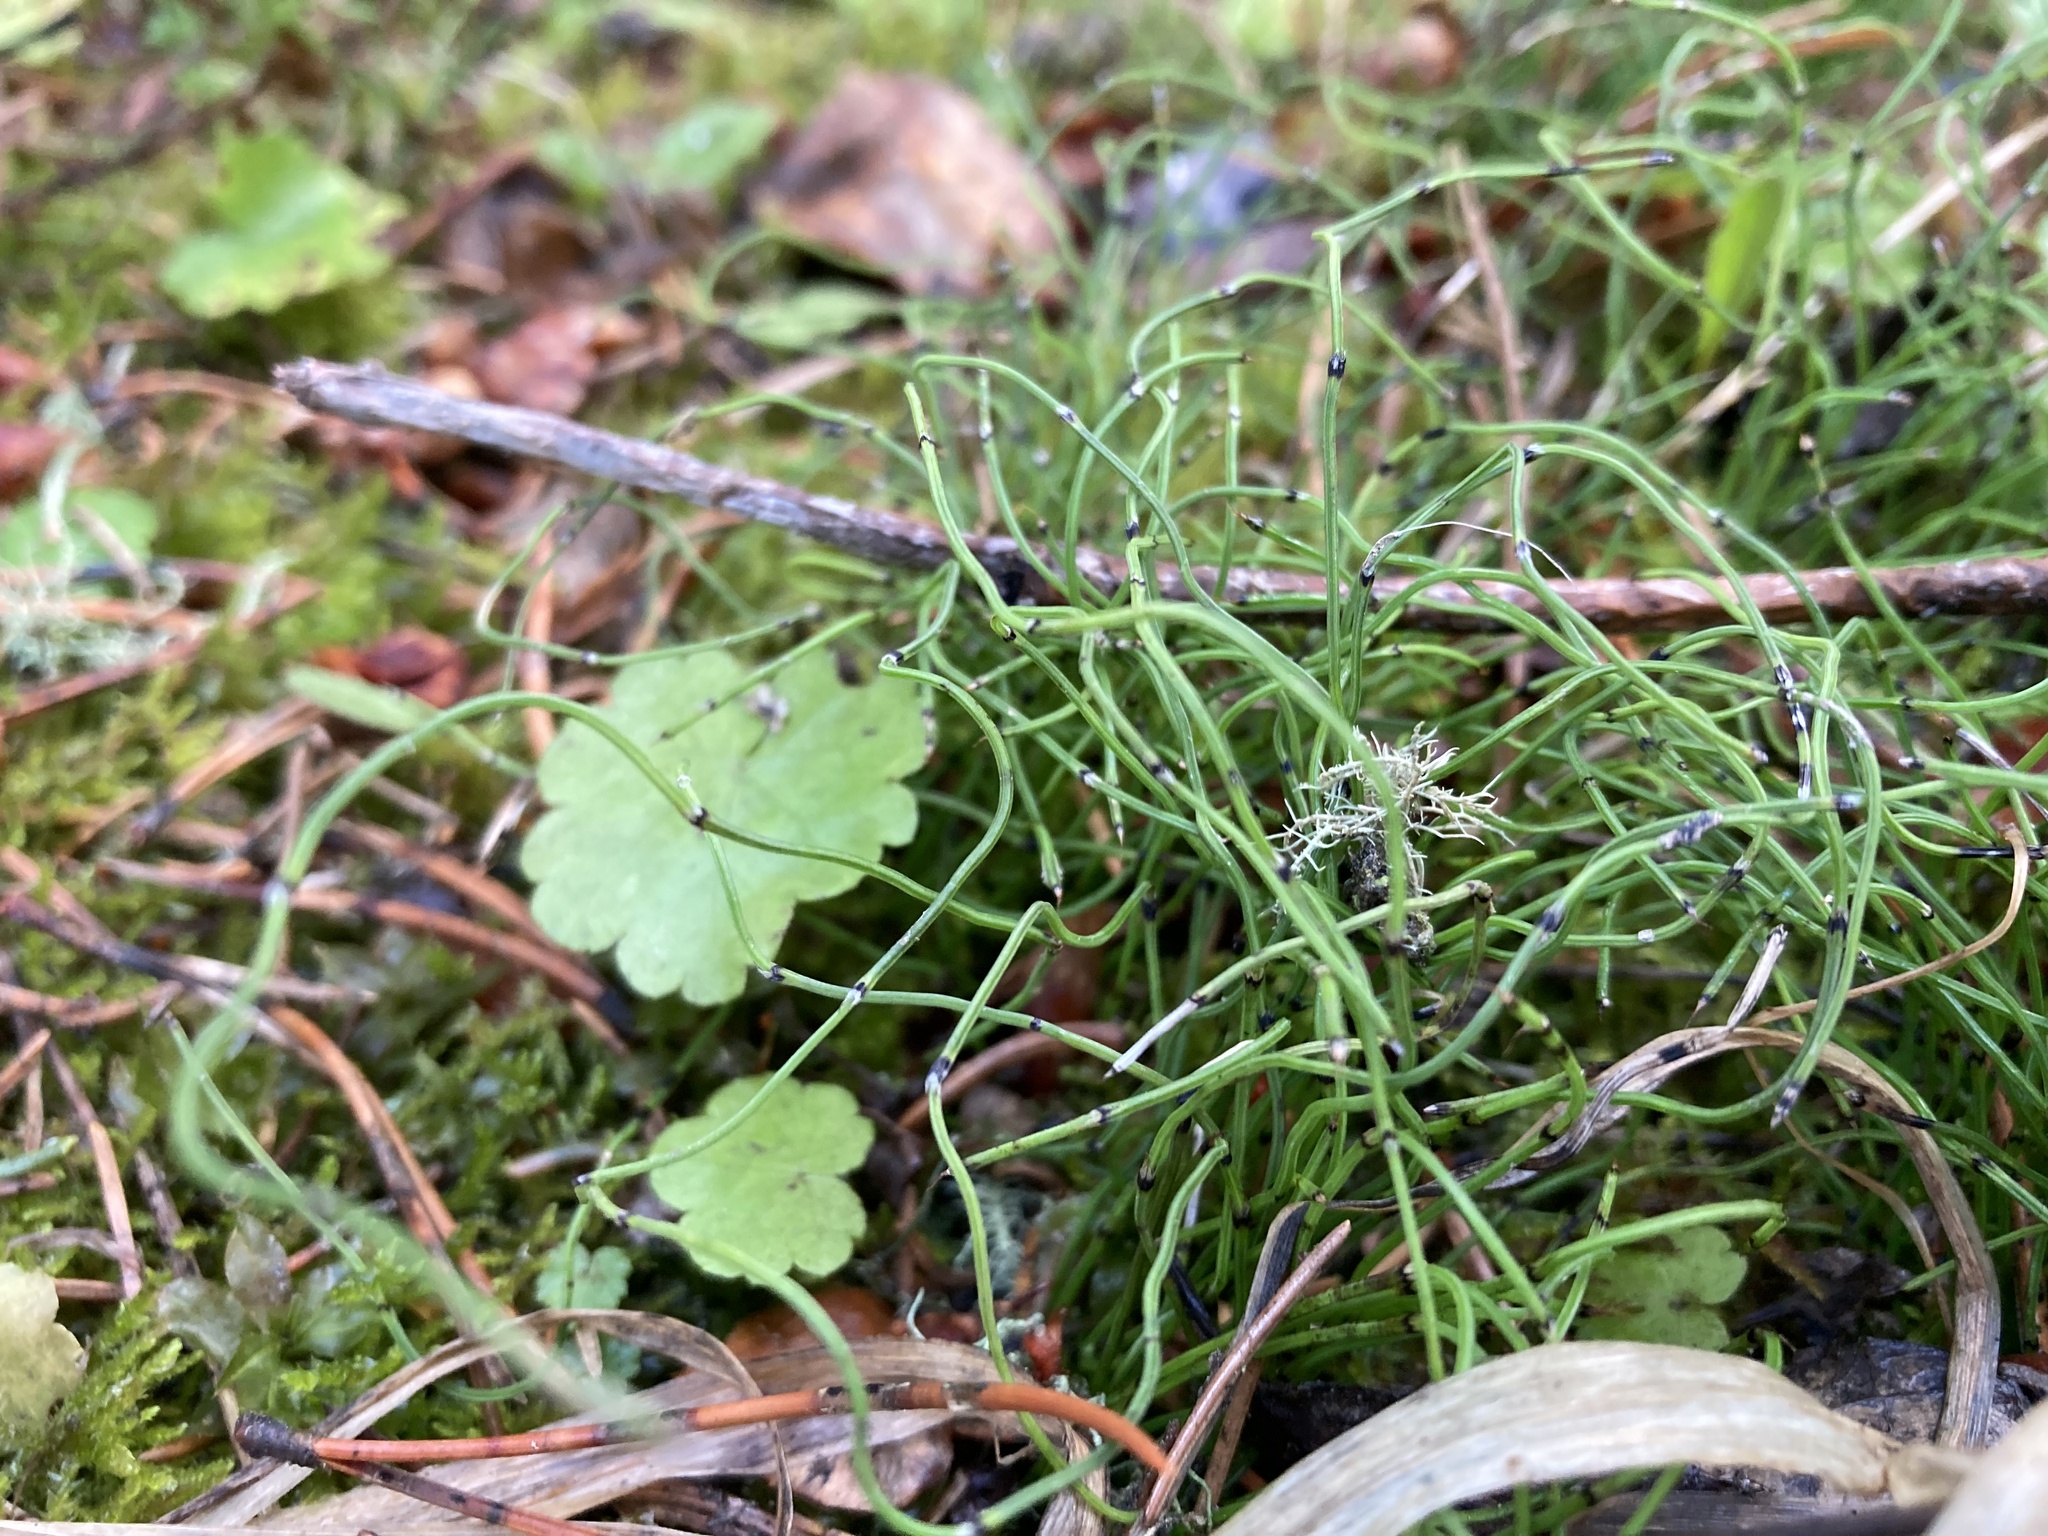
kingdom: Plantae
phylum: Tracheophyta
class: Polypodiopsida
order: Equisetales
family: Equisetaceae
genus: Equisetum
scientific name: Equisetum scirpoides
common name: Delicate horsetail
